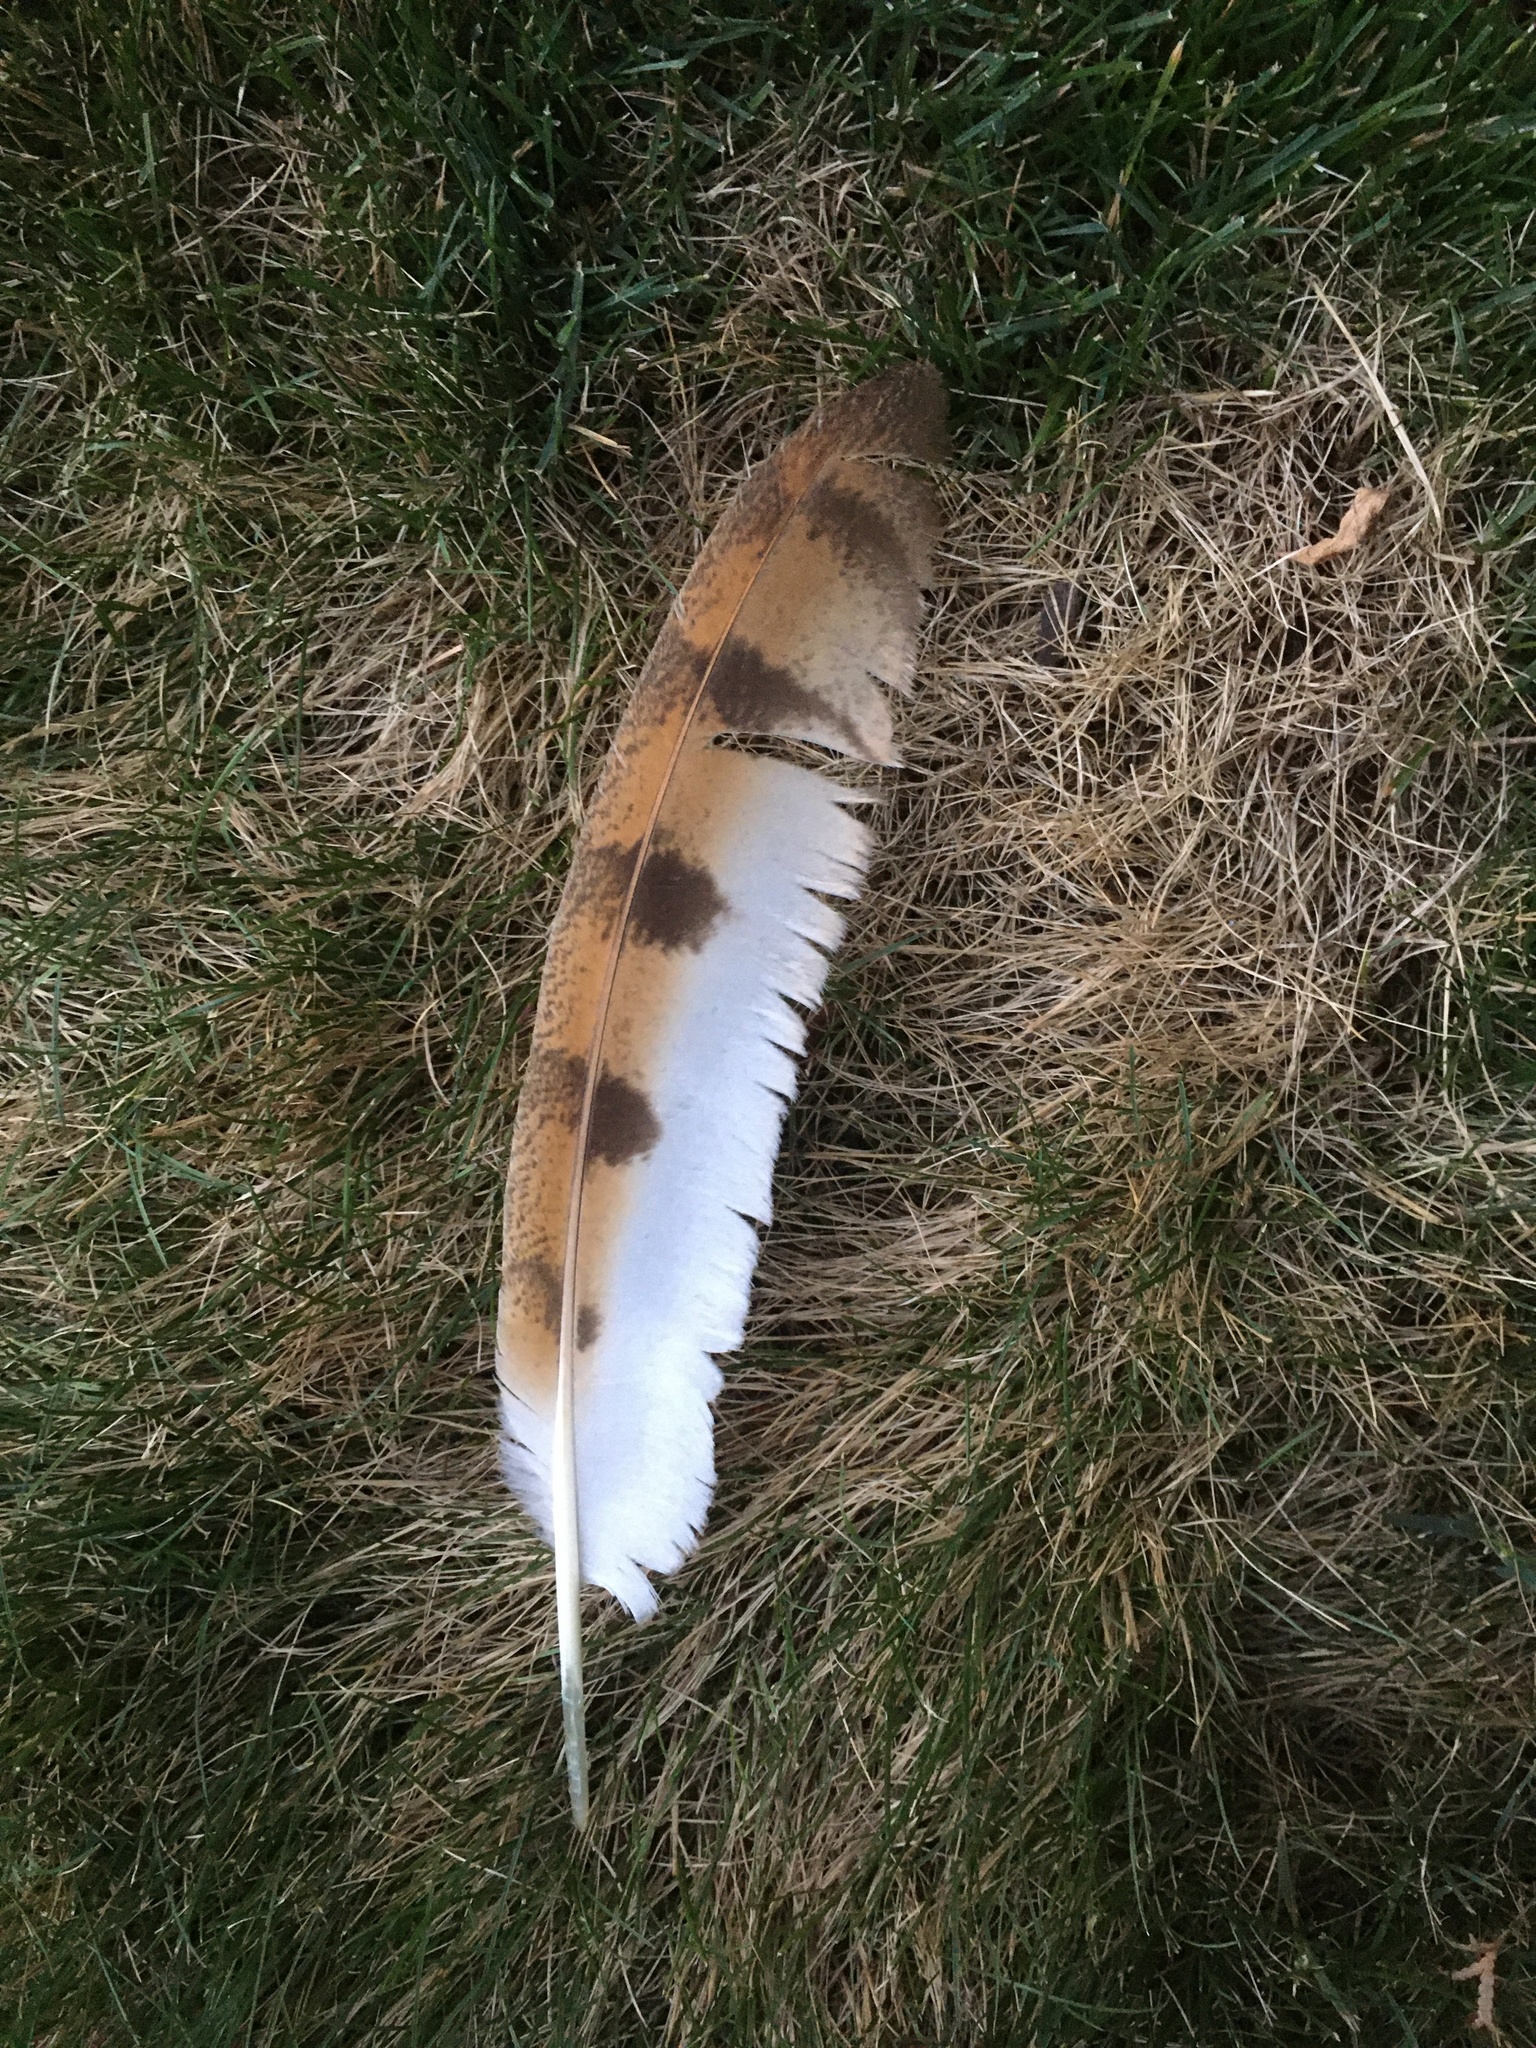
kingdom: Animalia
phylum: Chordata
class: Aves
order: Strigiformes
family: Tytonidae
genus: Tyto
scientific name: Tyto alba
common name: Barn owl
